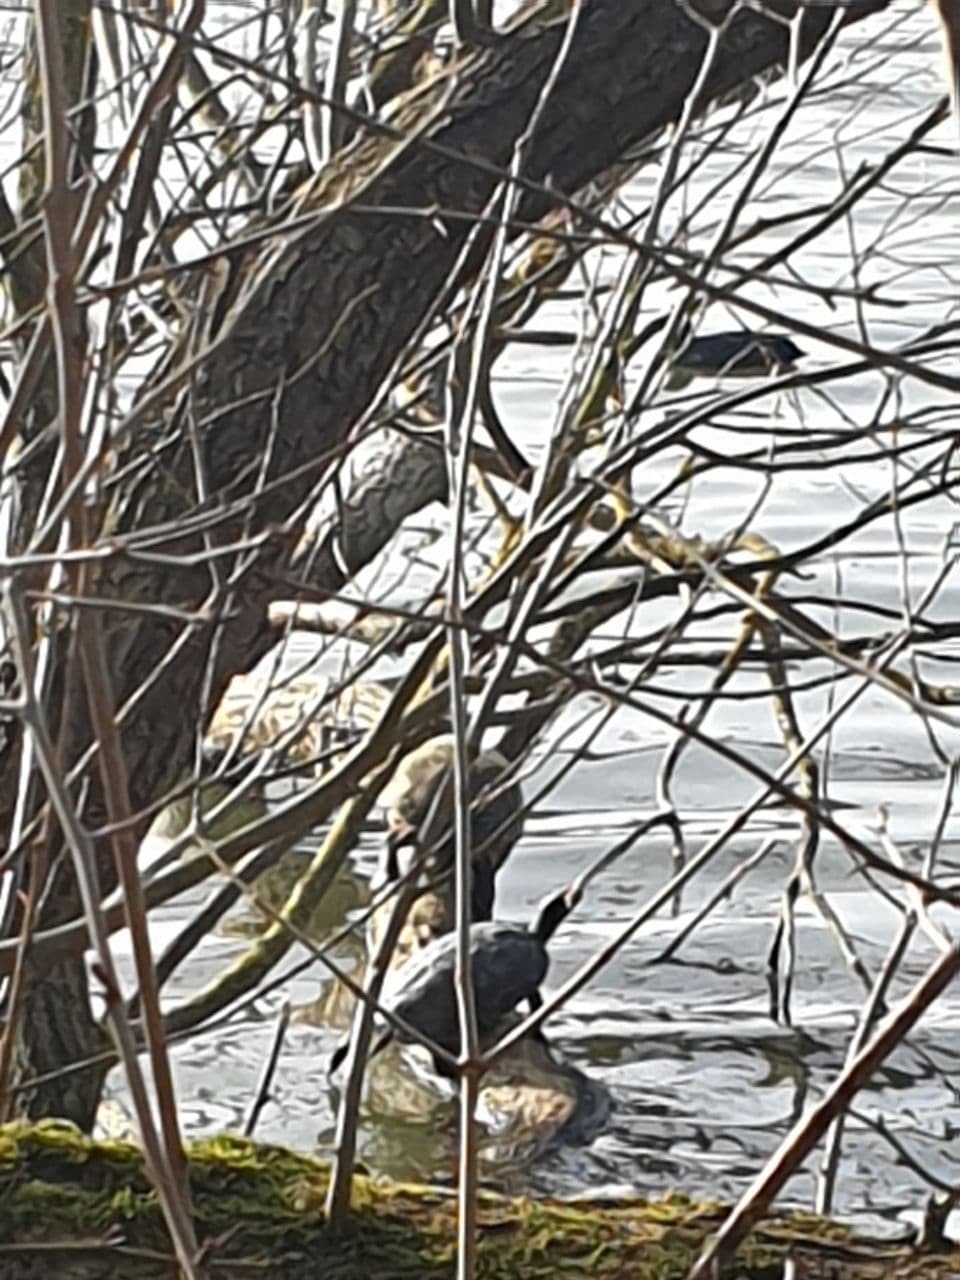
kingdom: Animalia
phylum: Chordata
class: Testudines
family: Emydidae
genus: Trachemys
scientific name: Trachemys scripta
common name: Slider
